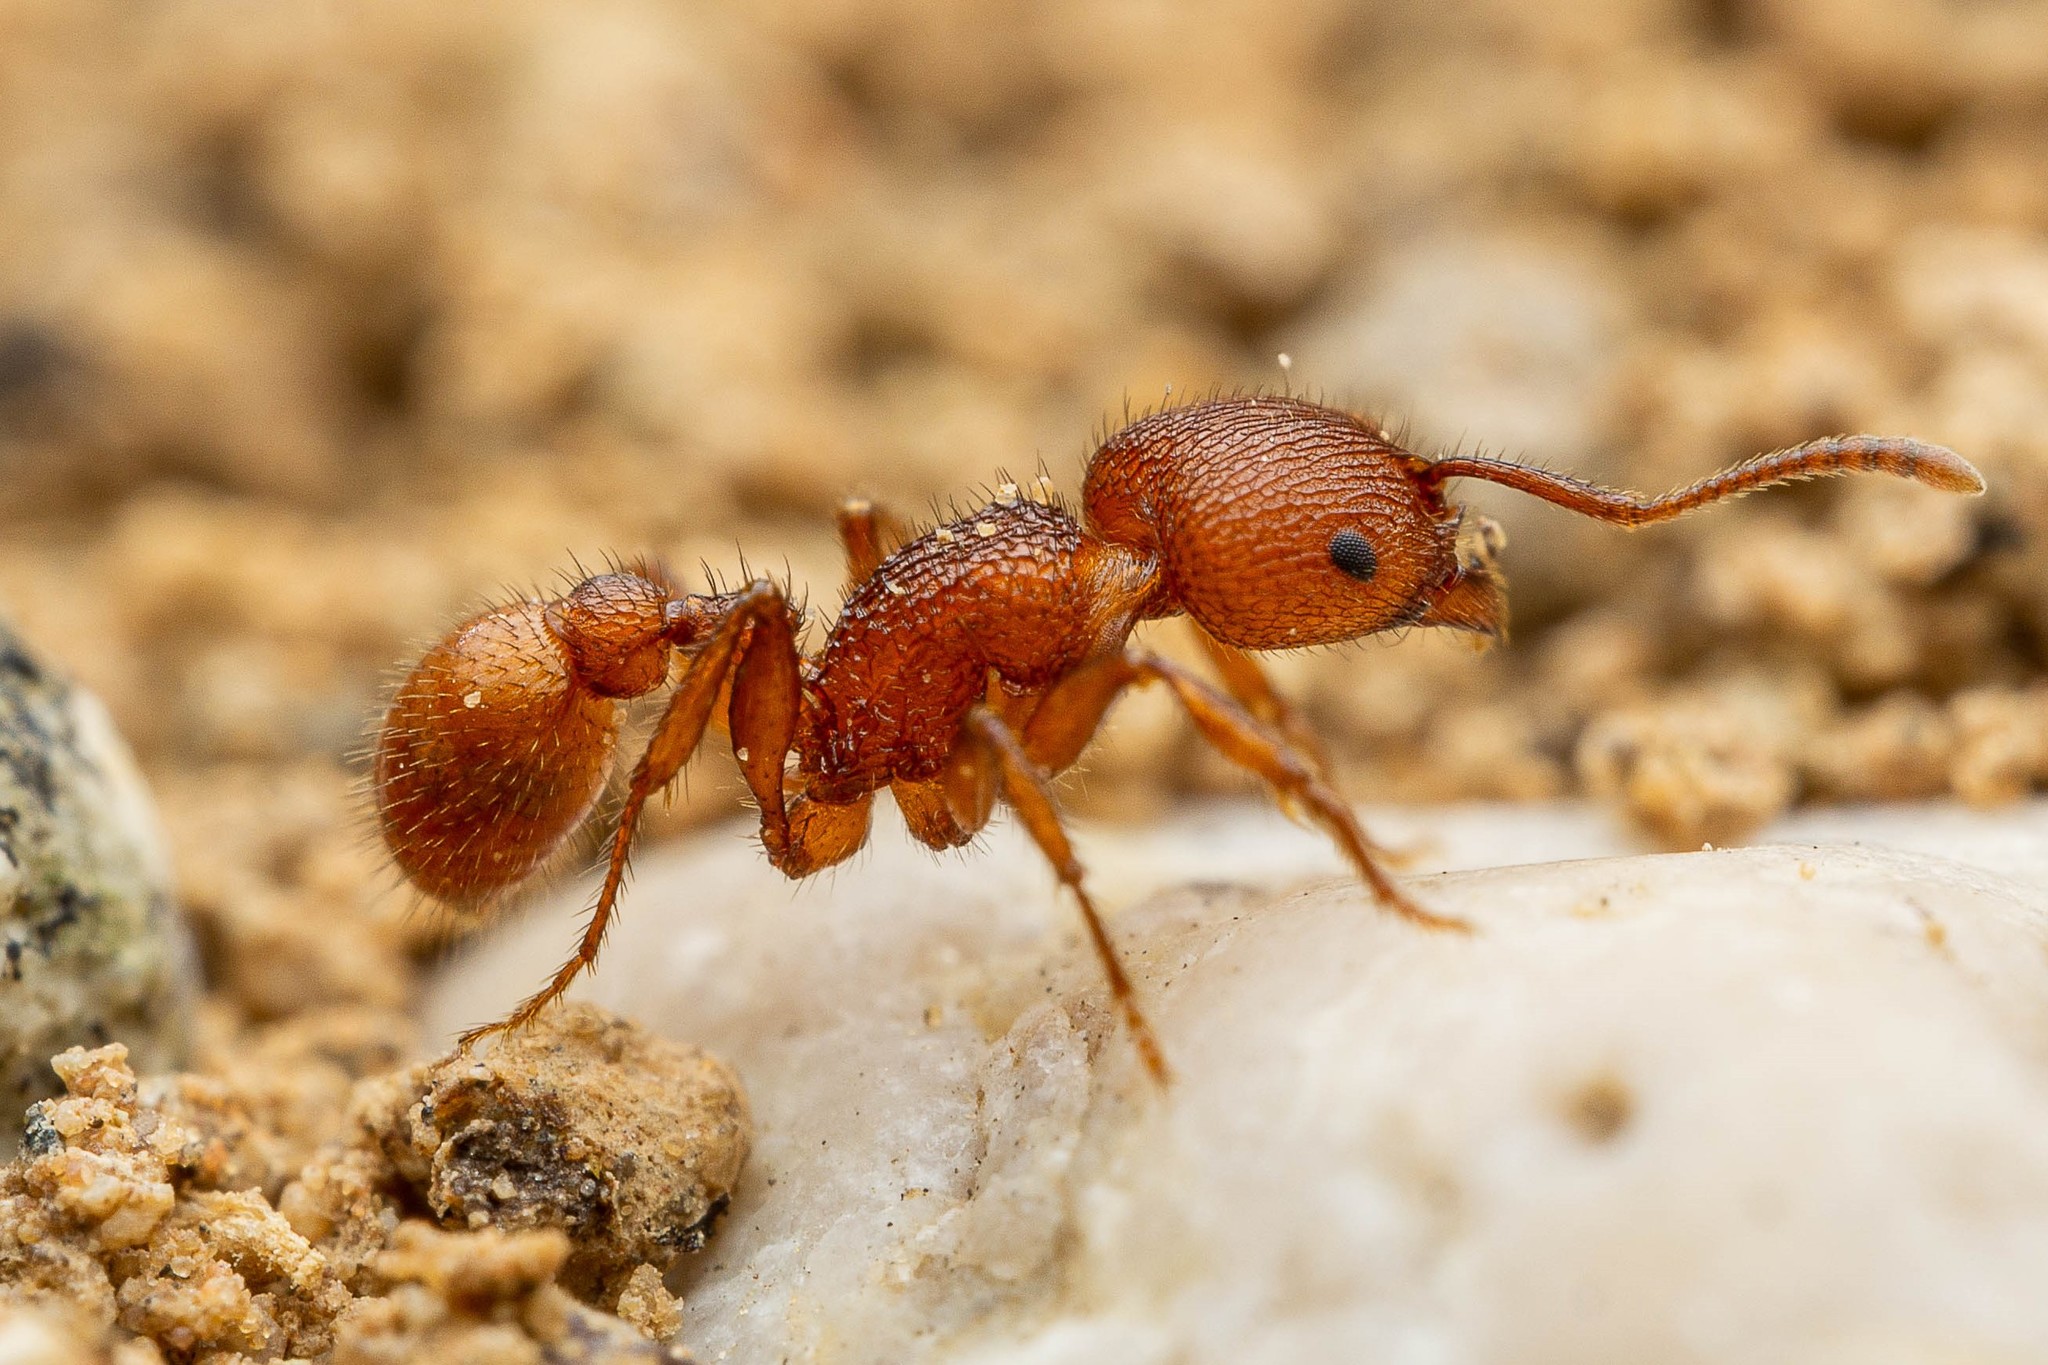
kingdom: Animalia
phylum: Arthropoda
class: Insecta
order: Hymenoptera
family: Formicidae
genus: Pogonomyrmex
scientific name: Pogonomyrmex imberbiculus
